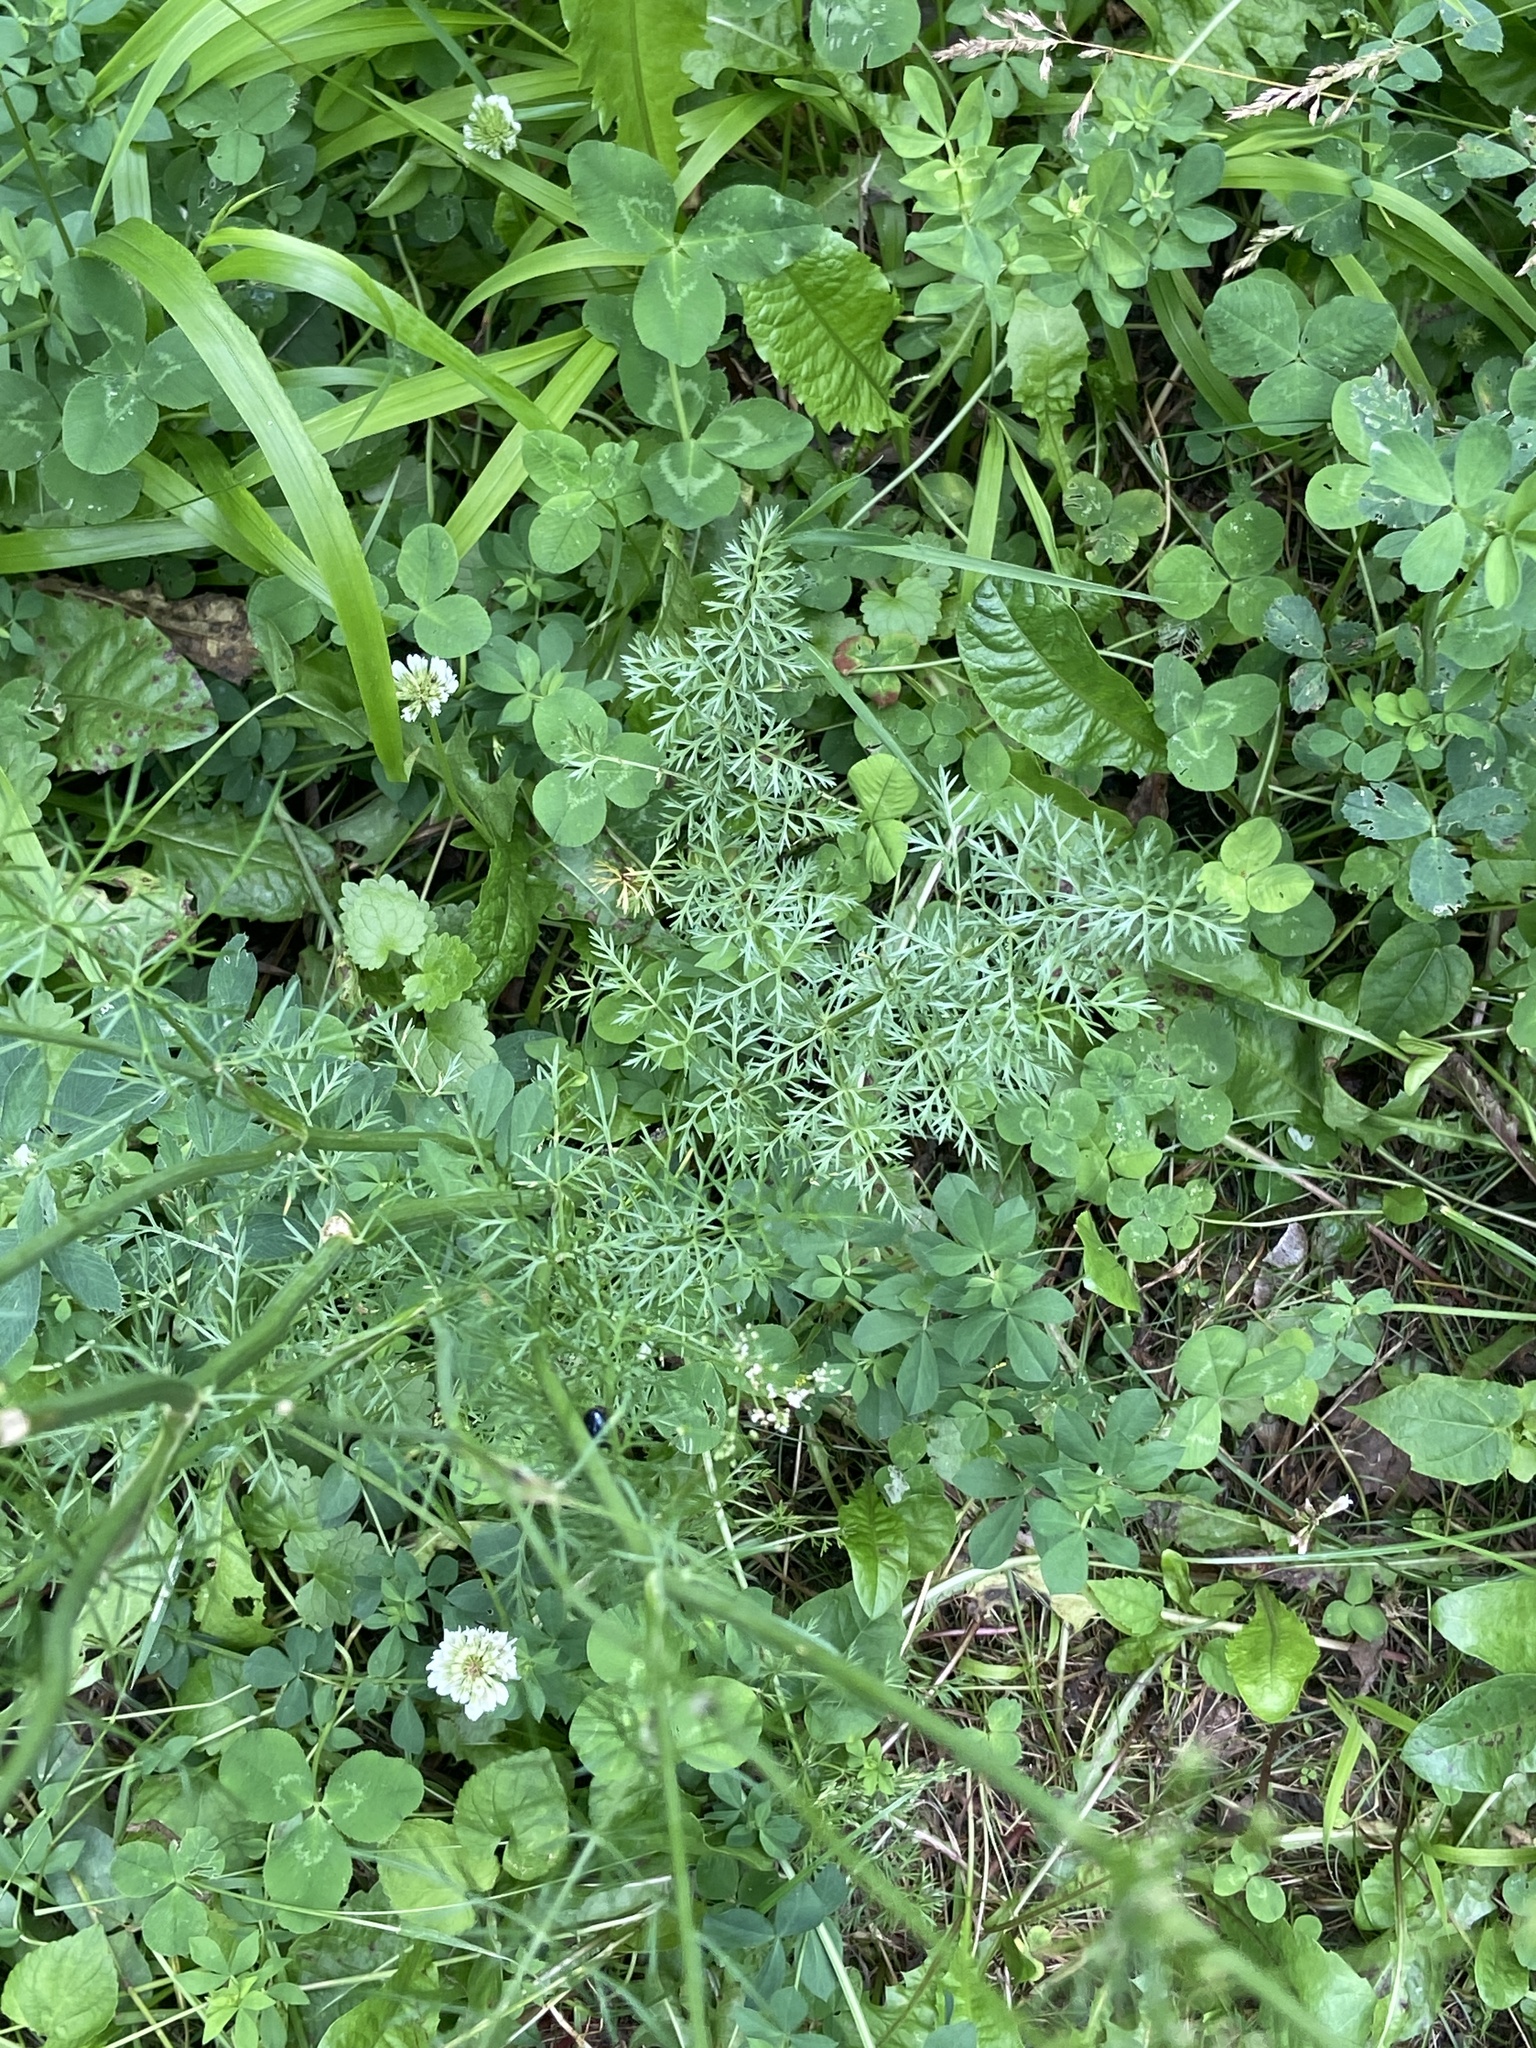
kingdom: Plantae
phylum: Tracheophyta
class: Magnoliopsida
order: Apiales
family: Apiaceae
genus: Carum
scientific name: Carum carvi
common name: Caraway
